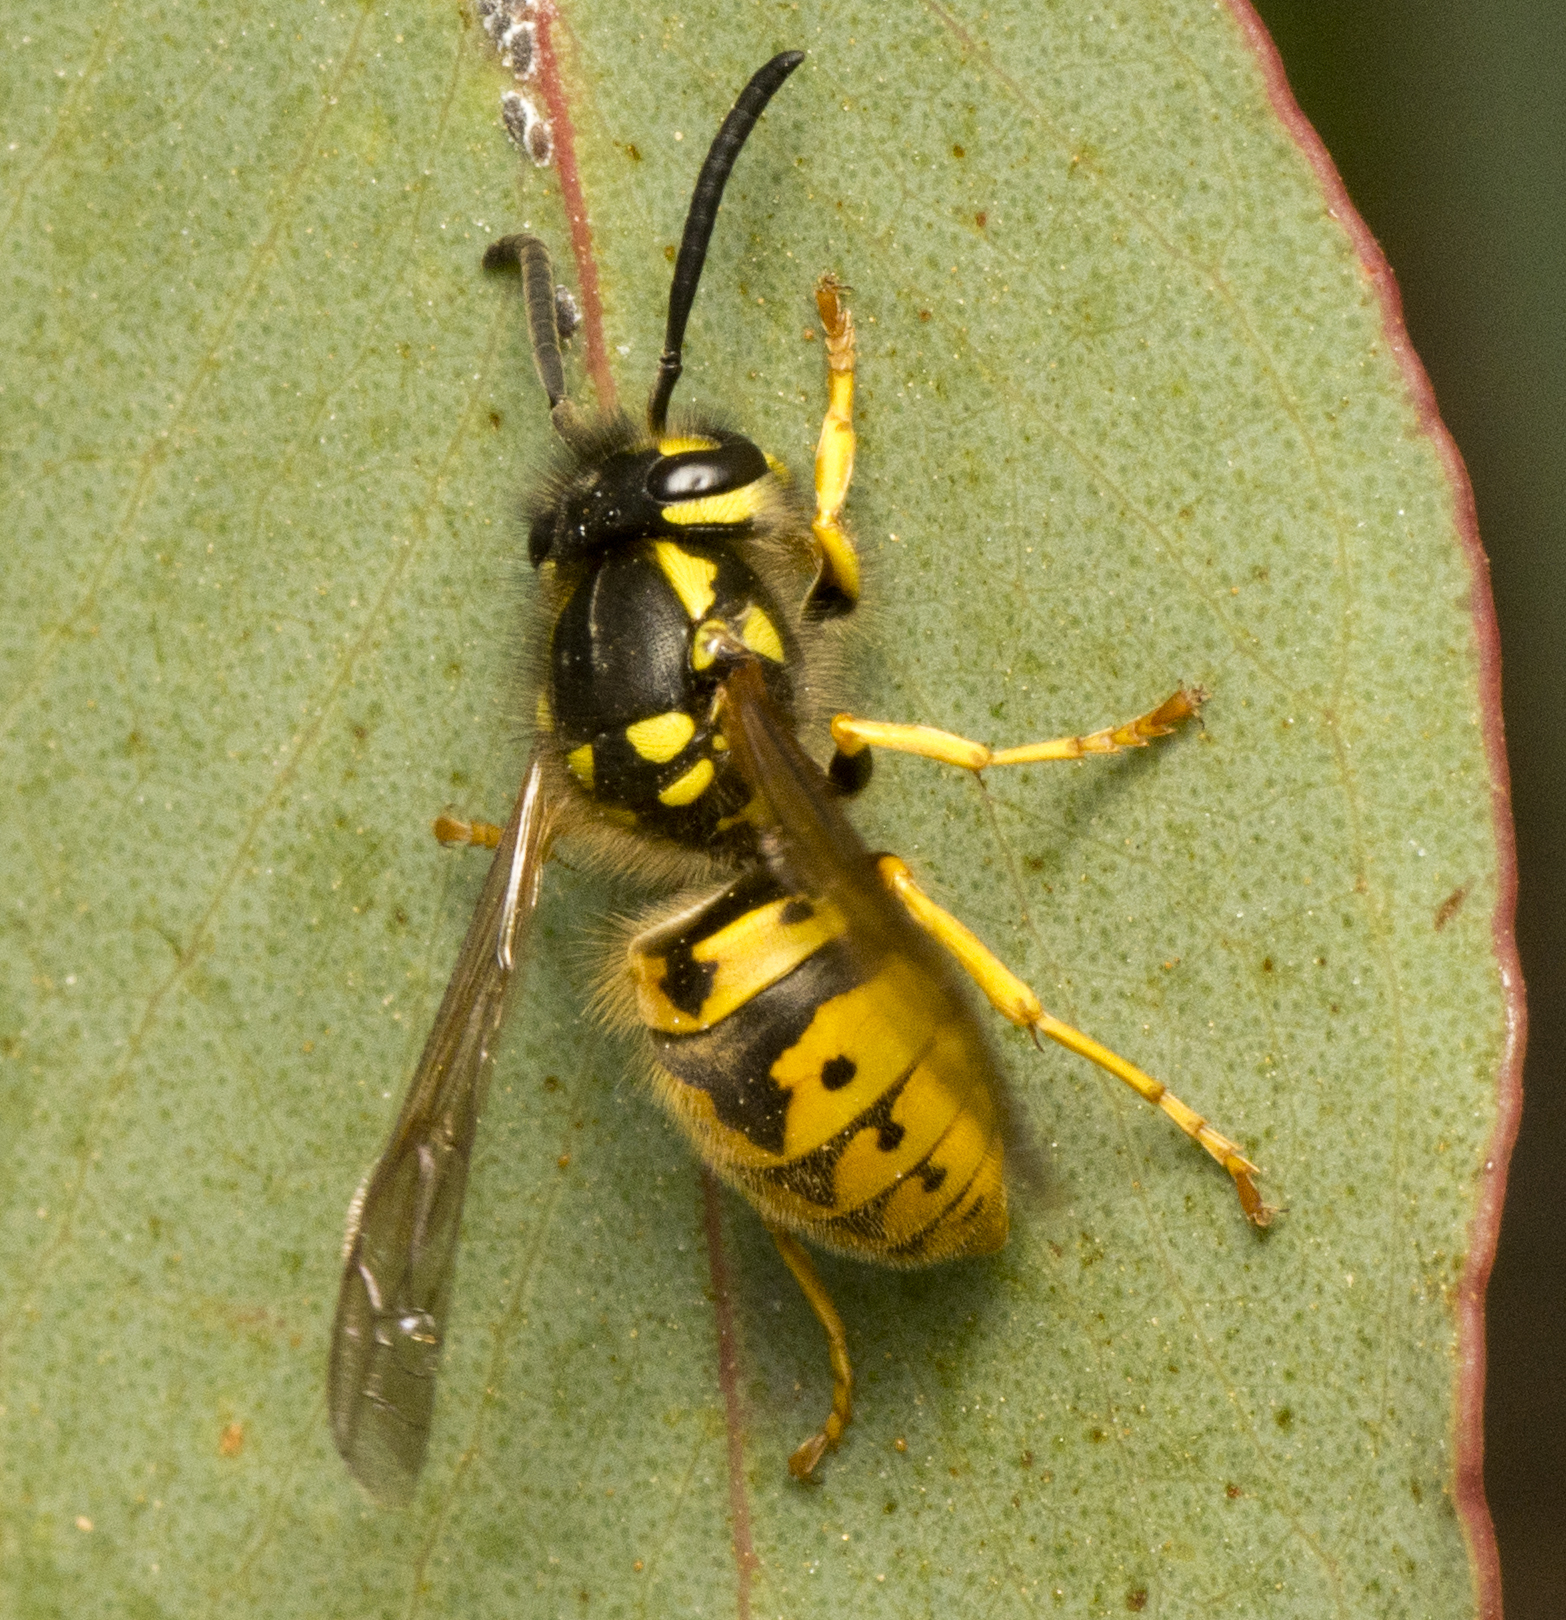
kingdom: Animalia
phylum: Arthropoda
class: Insecta
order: Hymenoptera
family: Vespidae
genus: Vespula
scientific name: Vespula germanica
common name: German wasp
